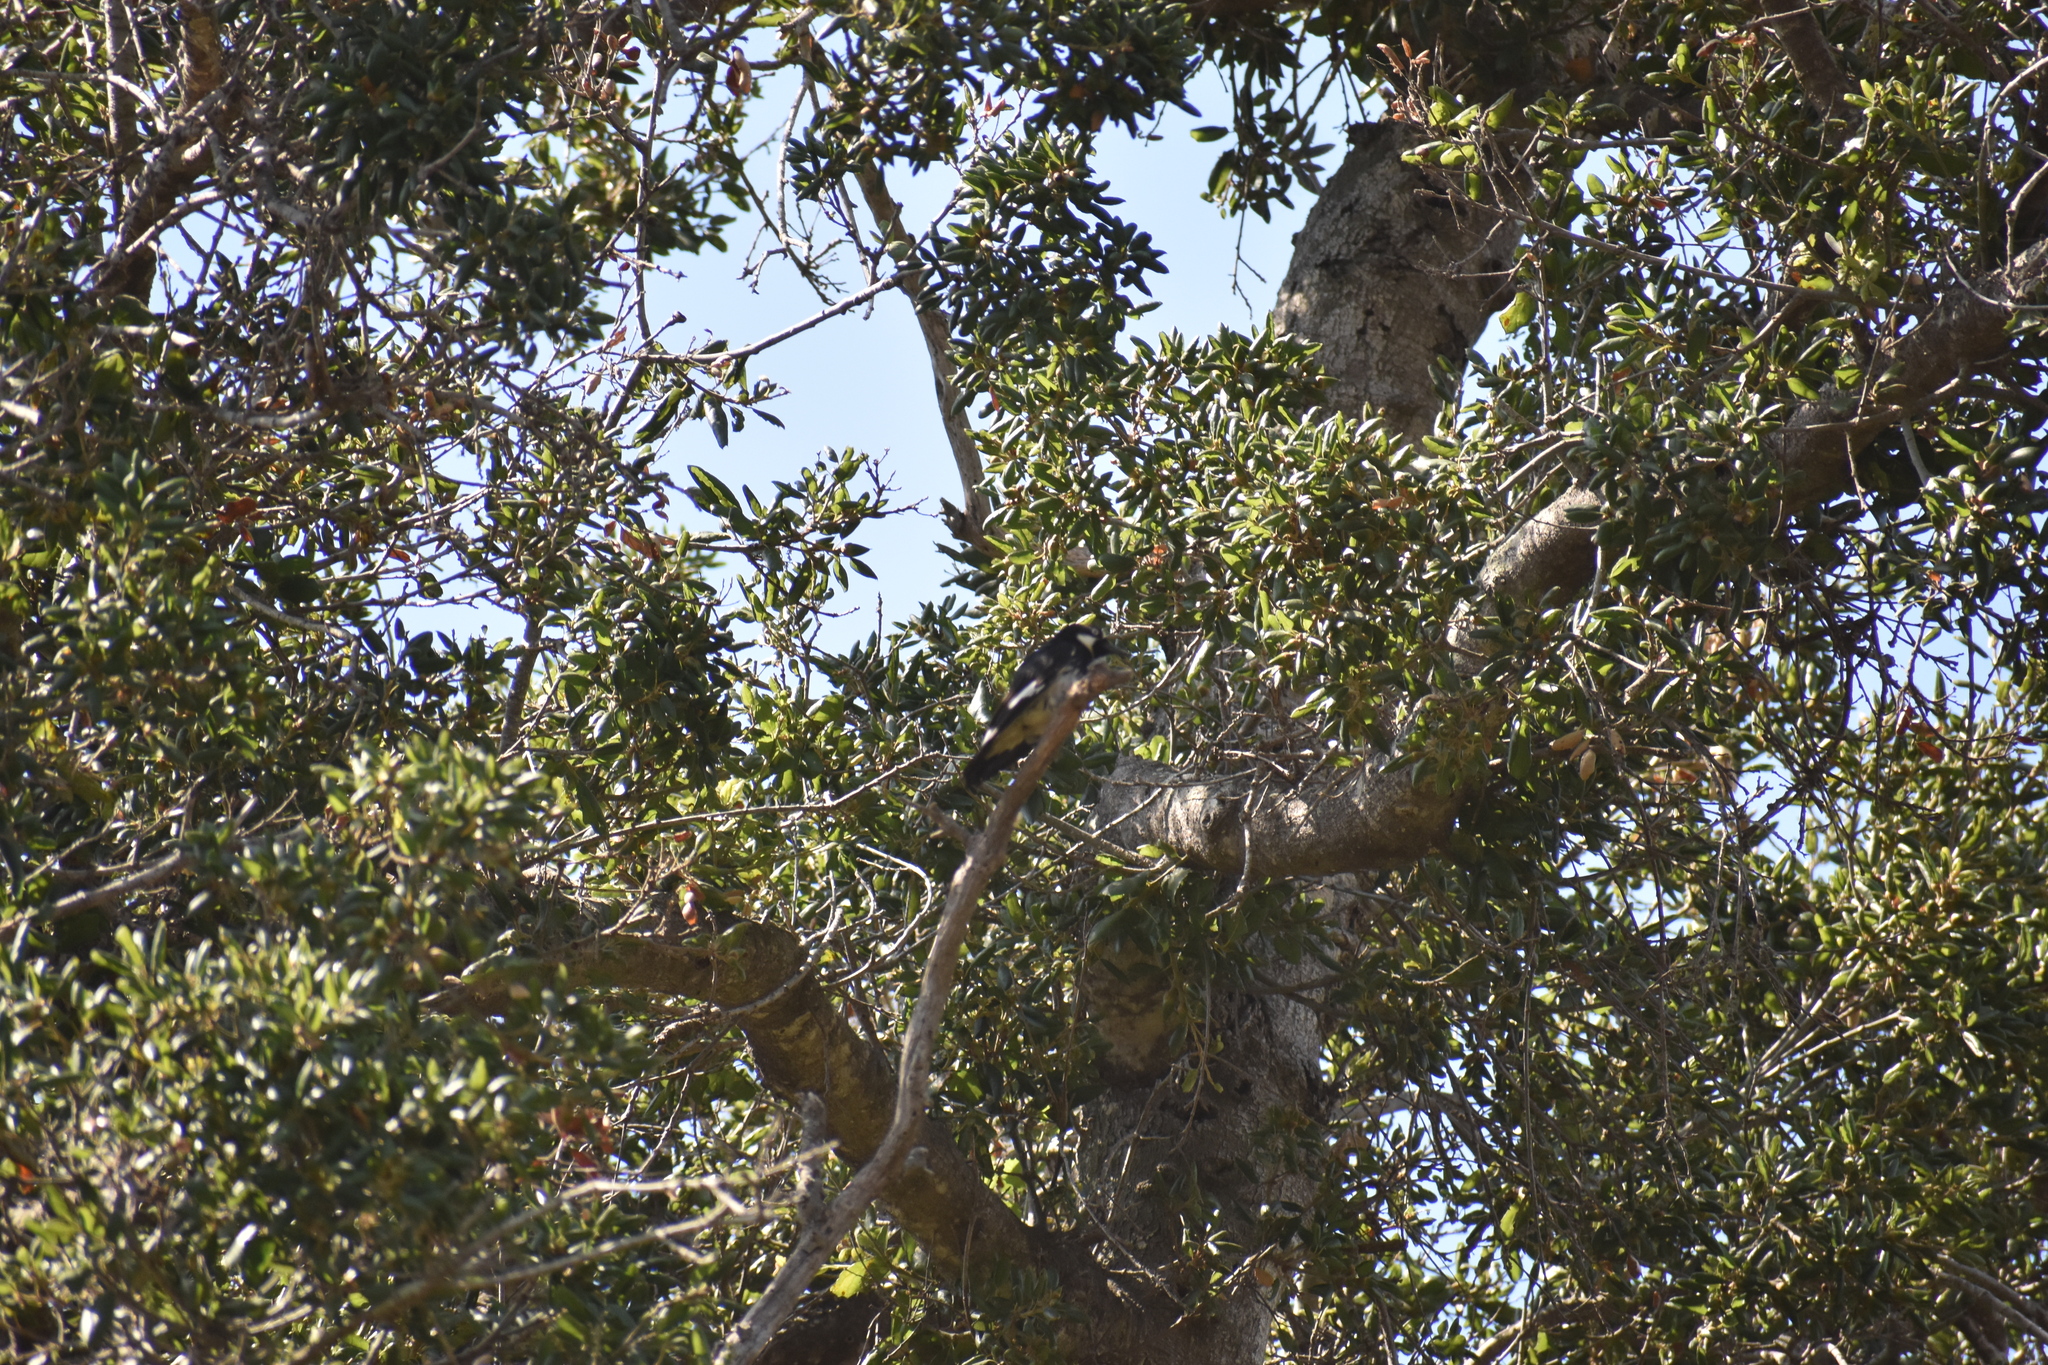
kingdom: Animalia
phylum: Chordata
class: Aves
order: Piciformes
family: Picidae
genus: Melanerpes
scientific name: Melanerpes formicivorus
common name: Acorn woodpecker
